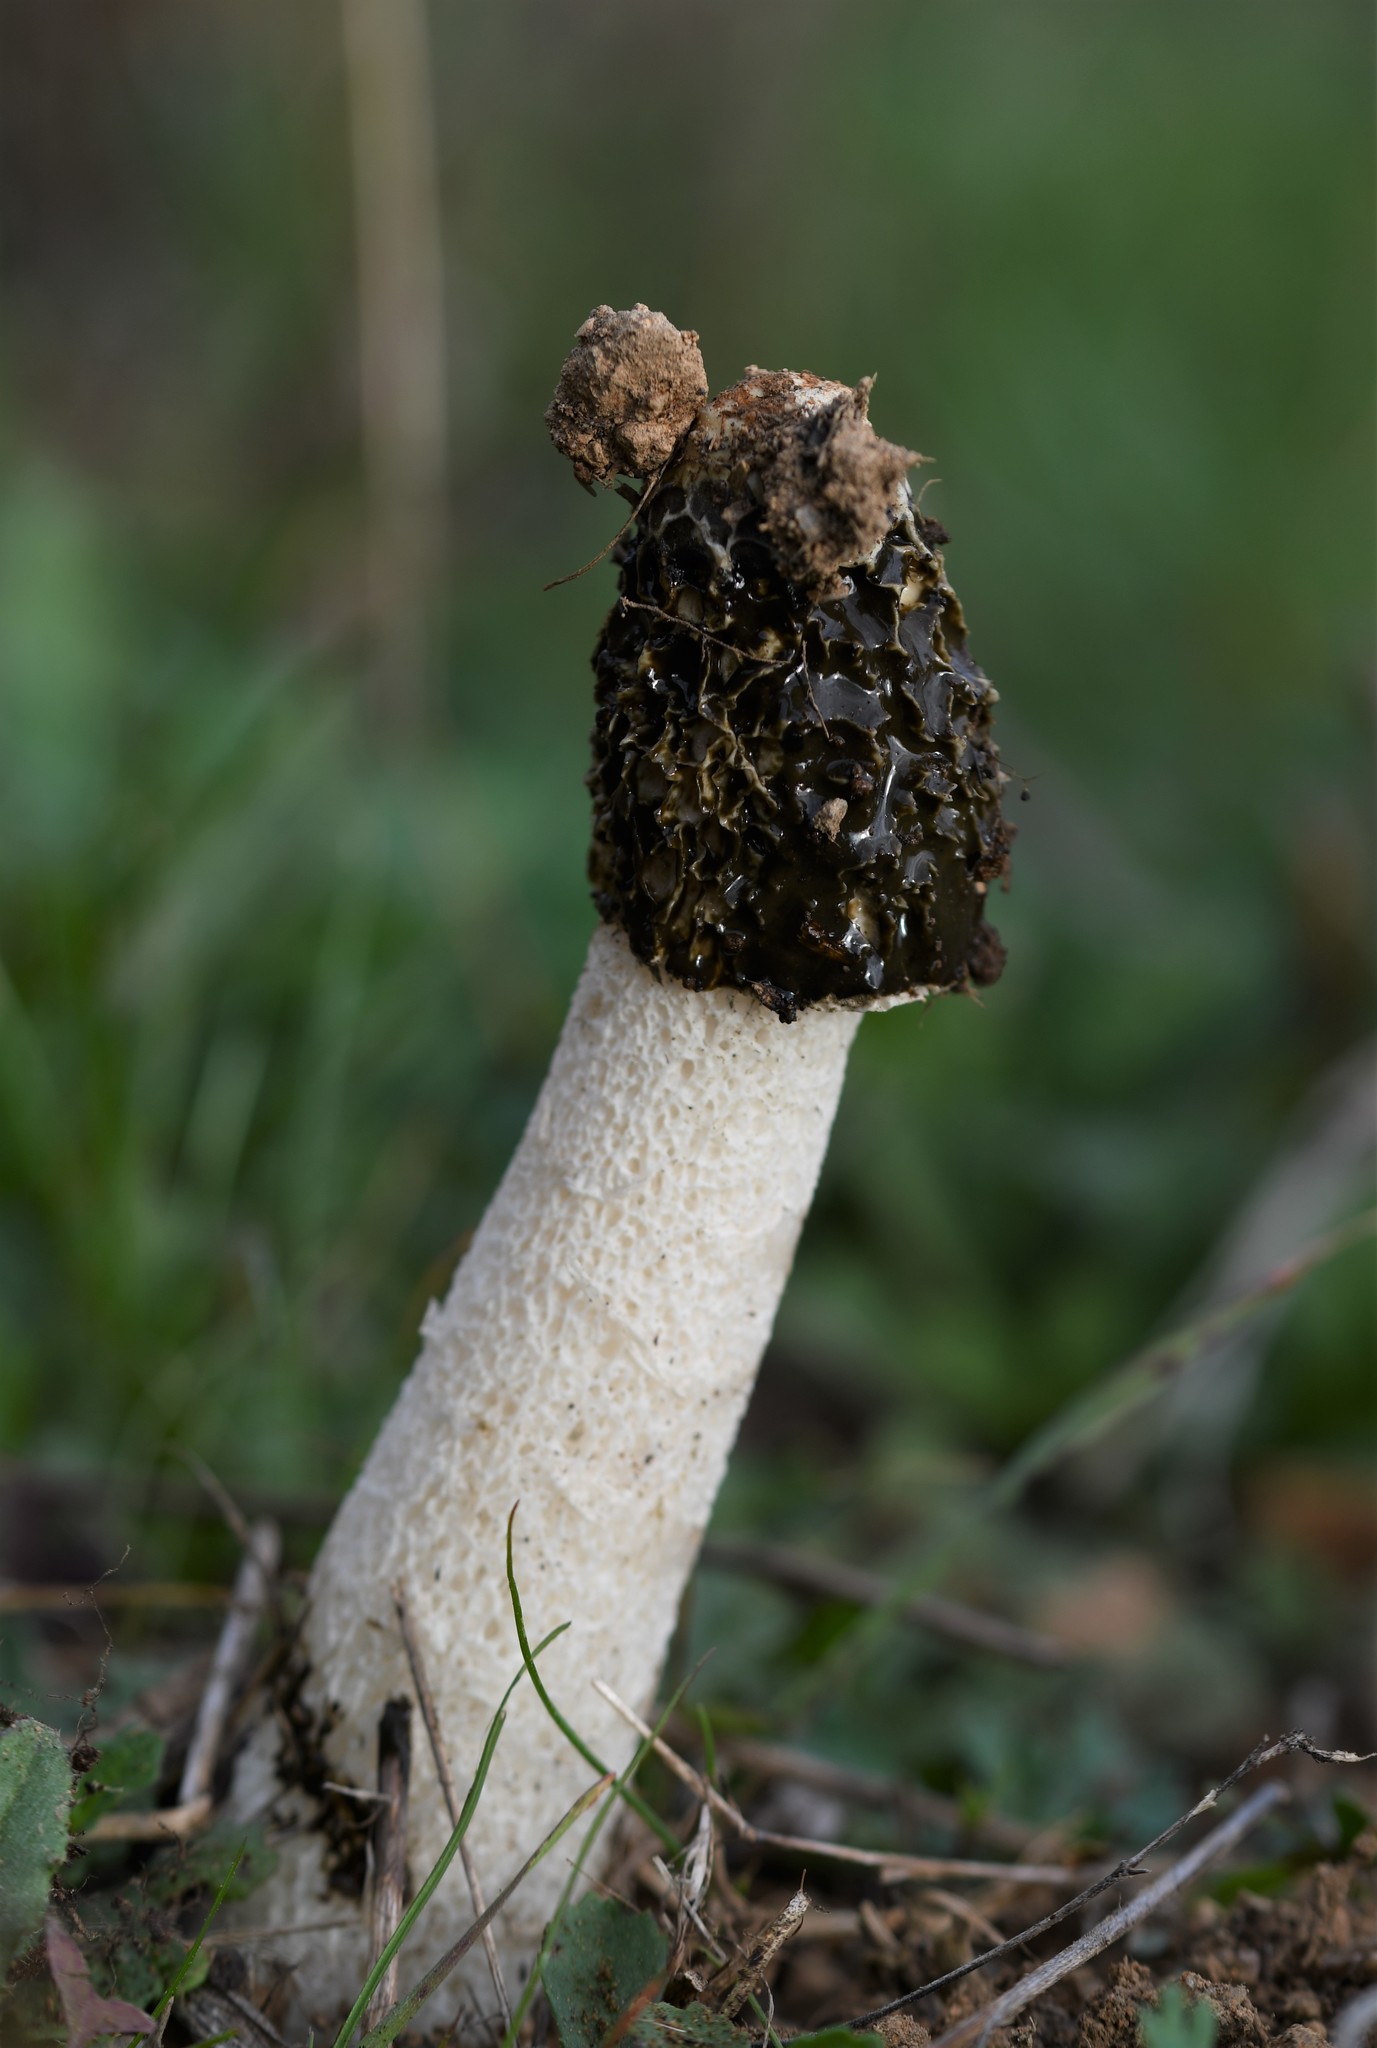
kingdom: Fungi
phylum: Basidiomycota
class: Agaricomycetes
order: Phallales
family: Phallaceae
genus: Phallus
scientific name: Phallus impudicus
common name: Common stinkhorn
